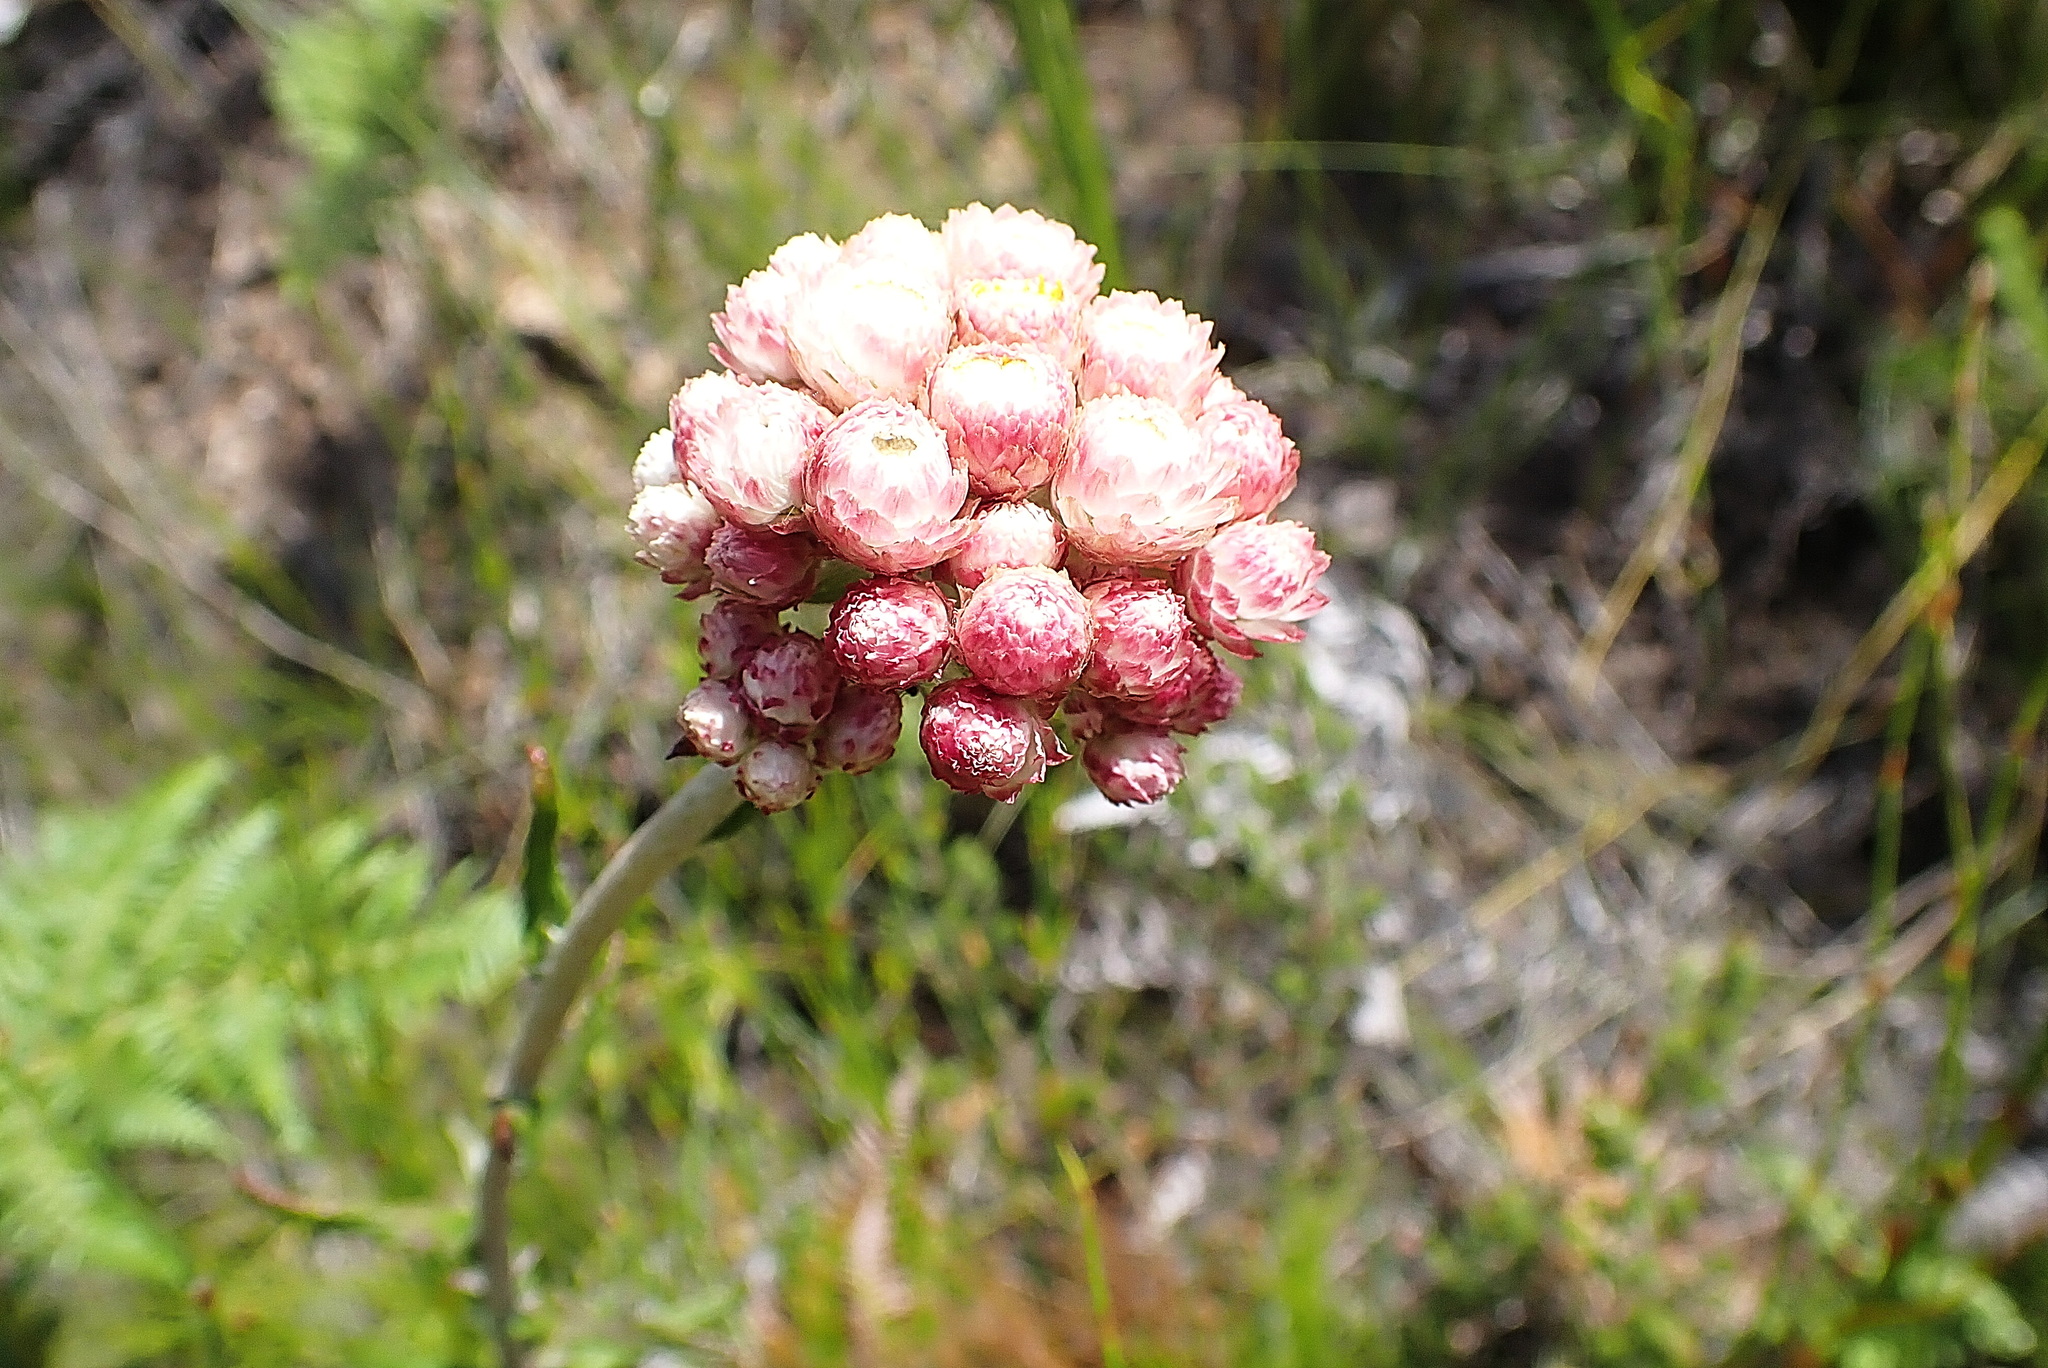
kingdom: Plantae
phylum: Tracheophyta
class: Magnoliopsida
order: Asterales
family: Asteraceae
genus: Helichrysum
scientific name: Helichrysum felinum
